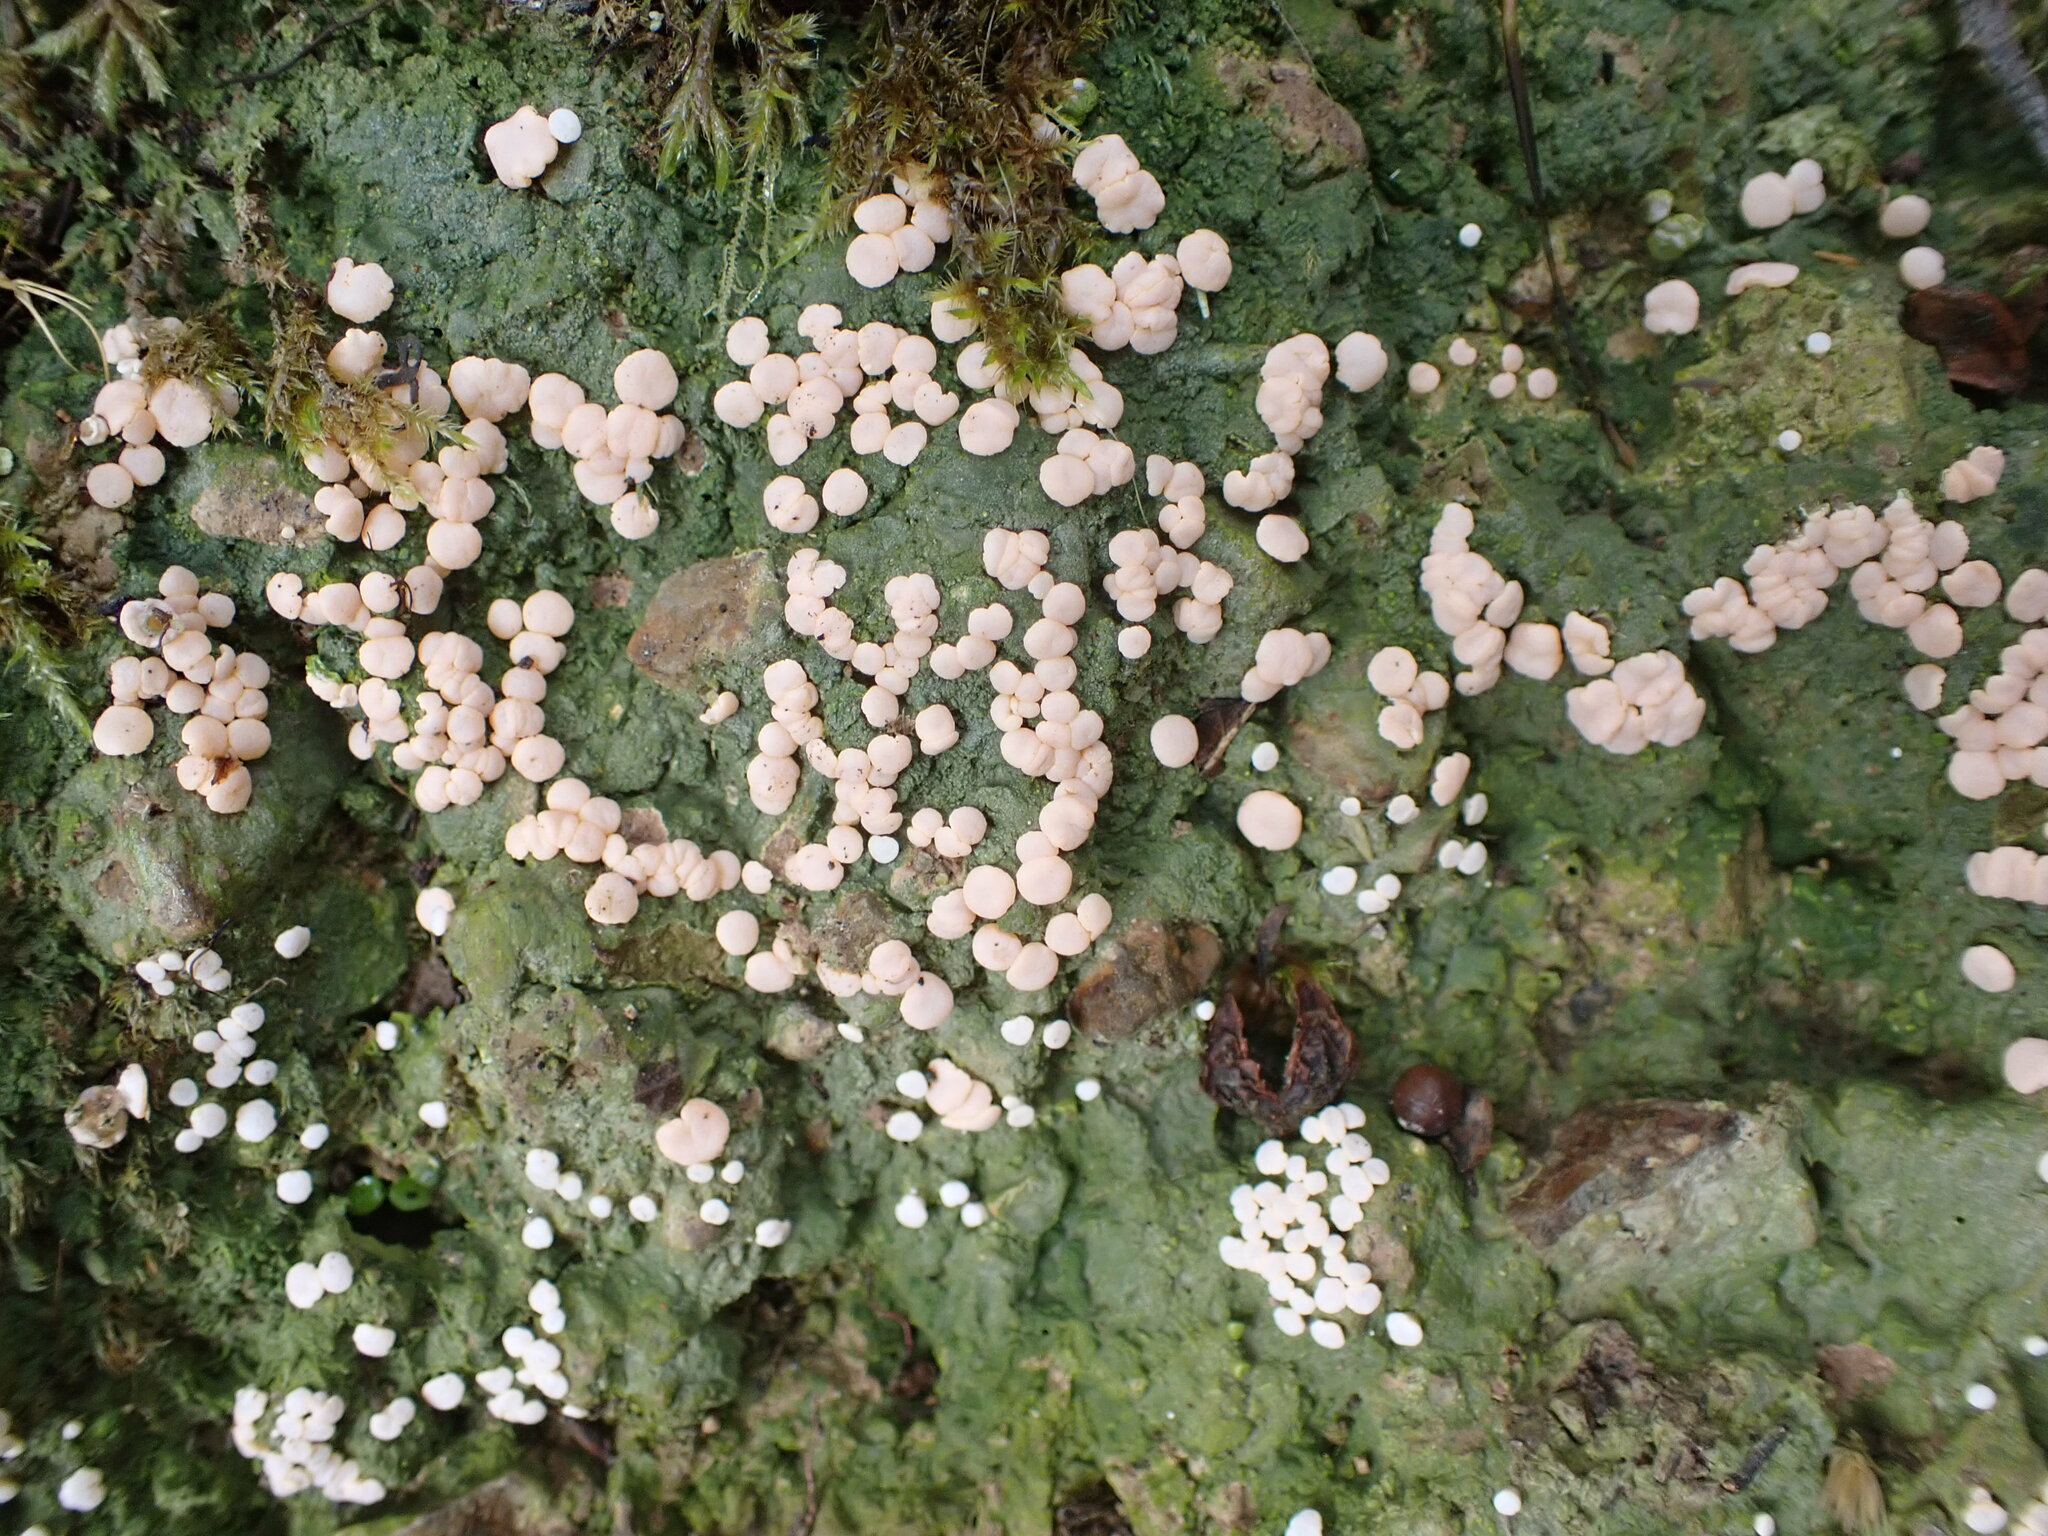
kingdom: Fungi
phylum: Ascomycota
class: Lecanoromycetes
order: Pertusariales
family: Icmadophilaceae
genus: Dibaeis
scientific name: Dibaeis absoluta
